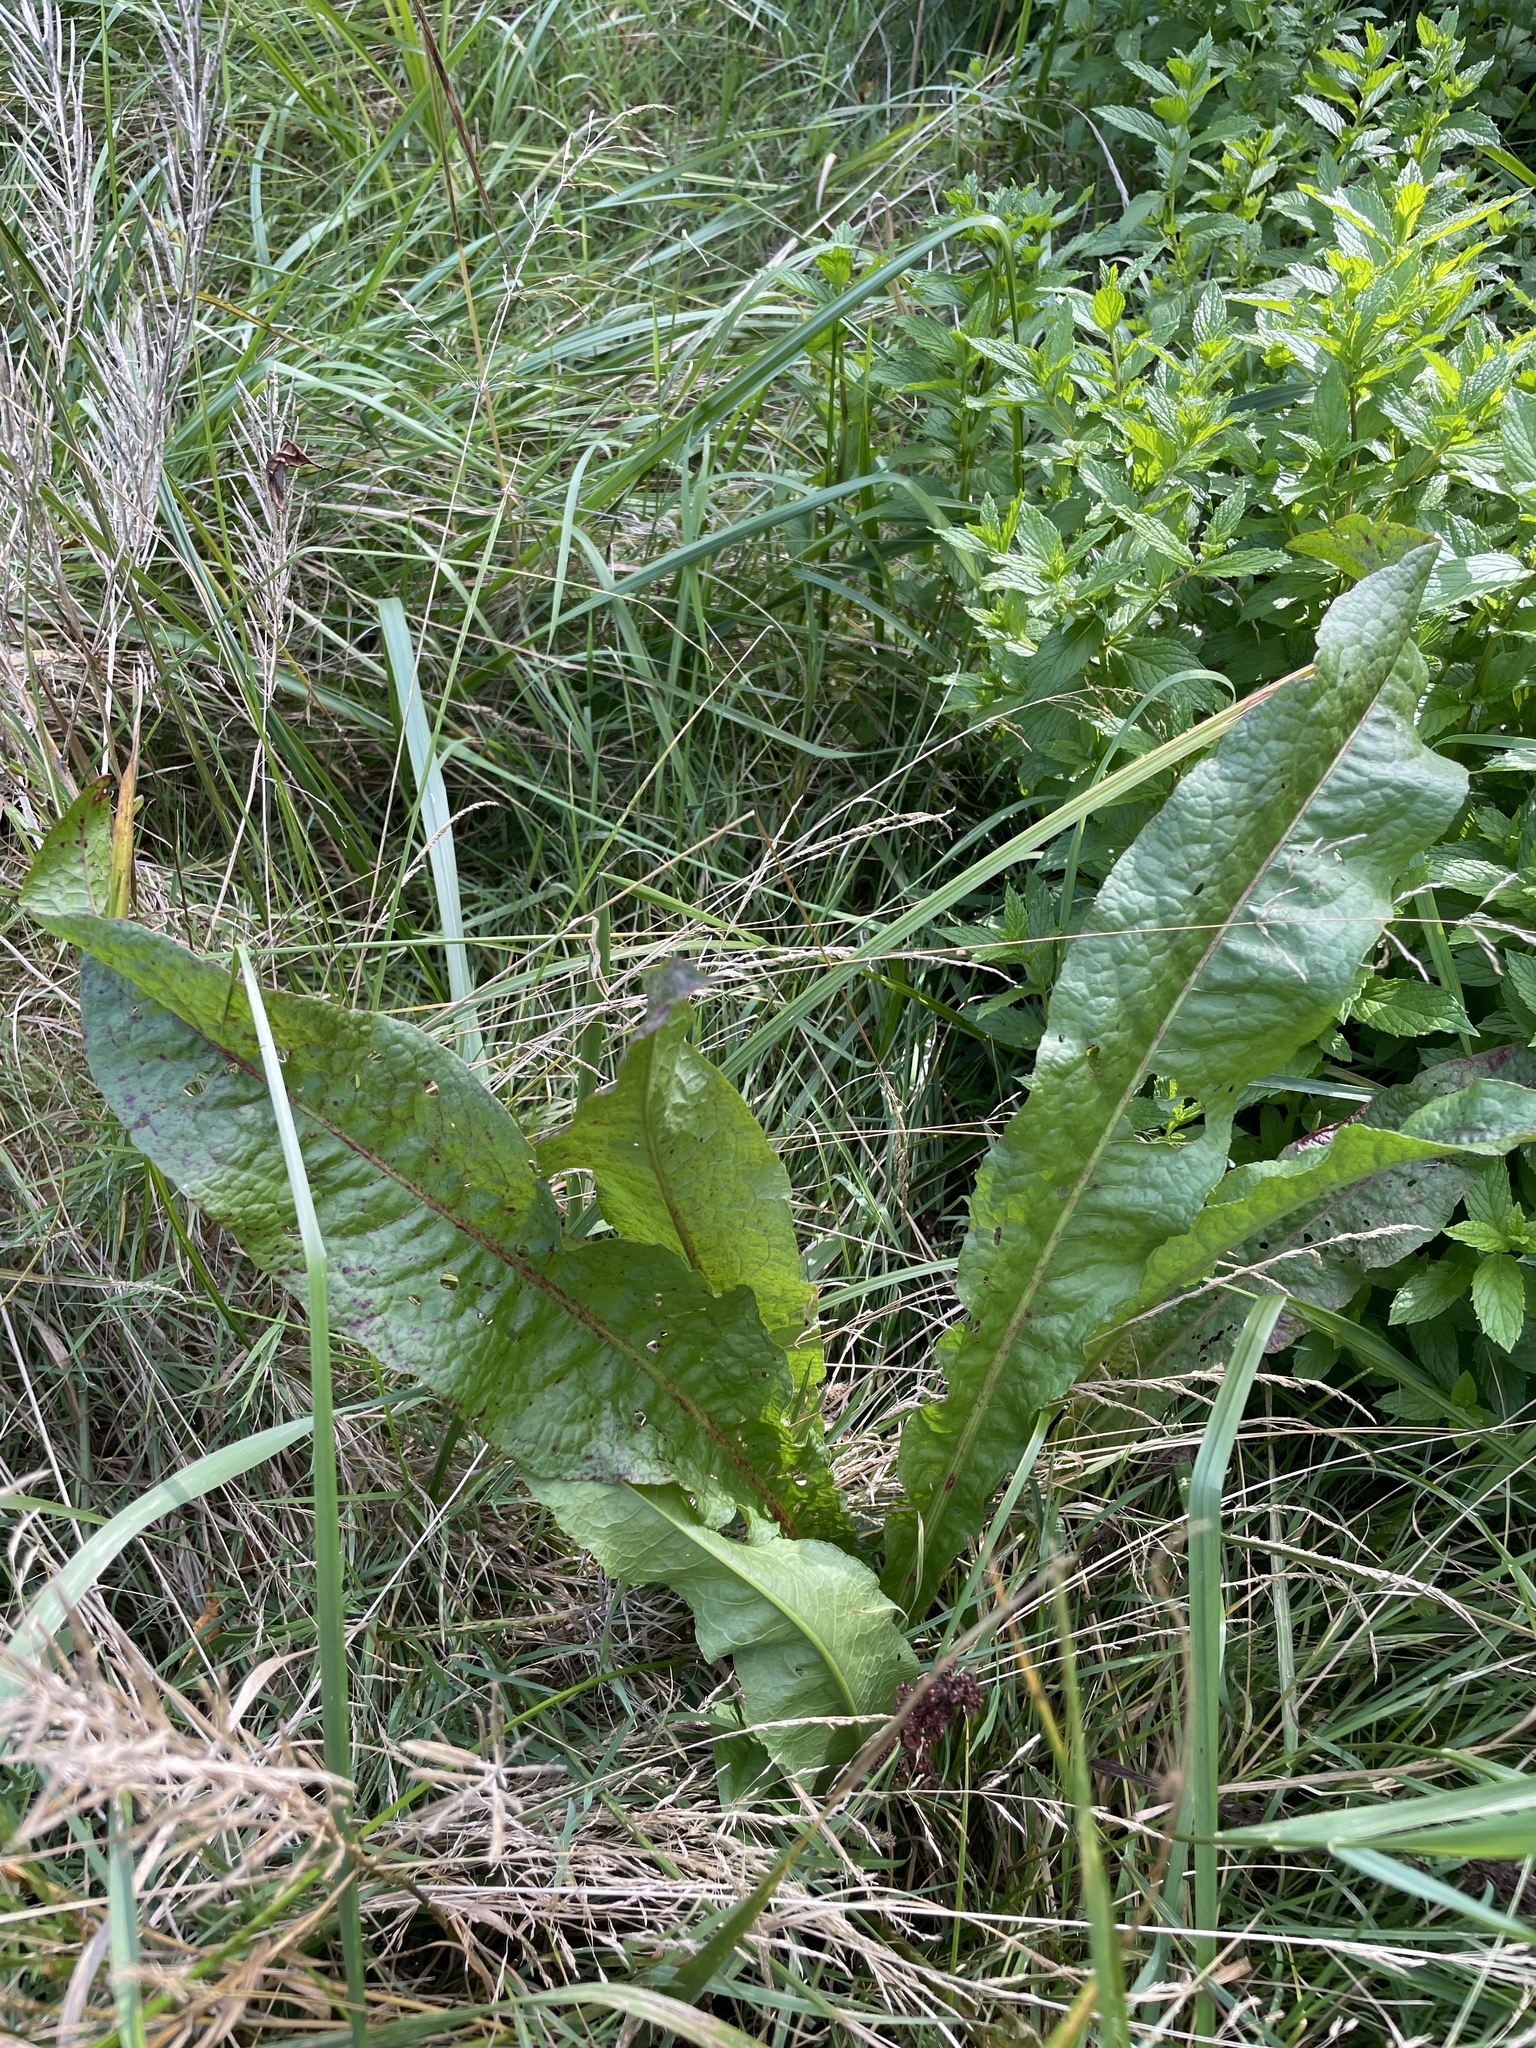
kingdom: Plantae
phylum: Tracheophyta
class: Magnoliopsida
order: Caryophyllales
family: Polygonaceae
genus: Rumex
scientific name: Rumex crispus
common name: Curled dock
